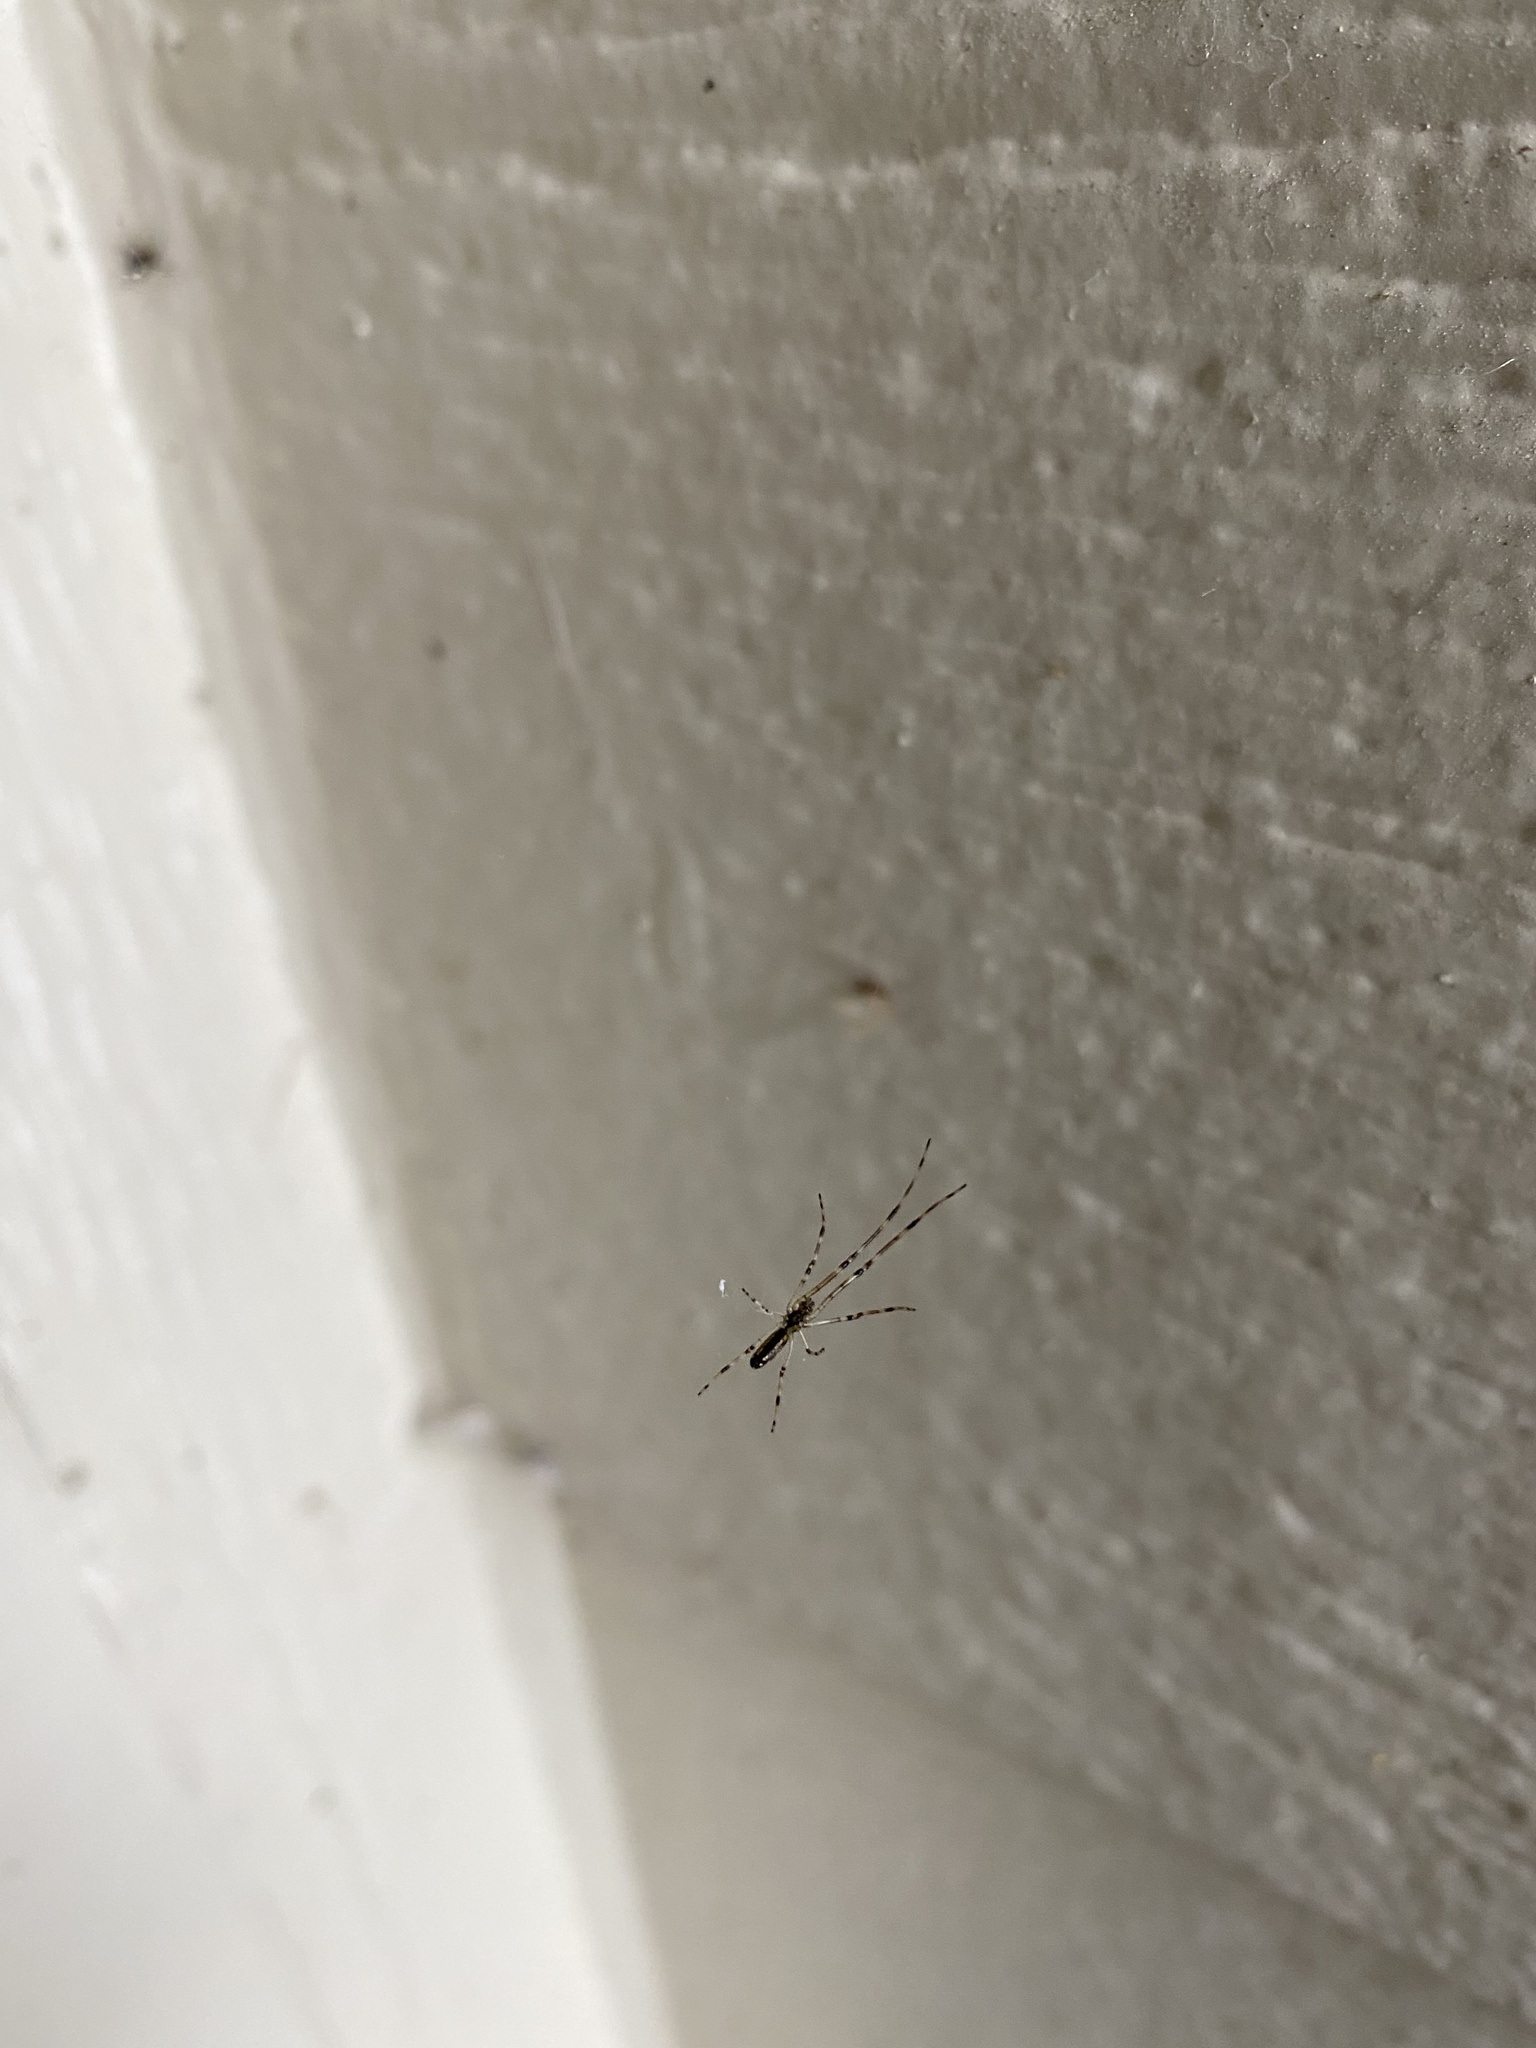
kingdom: Animalia
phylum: Arthropoda
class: Arachnida
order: Araneae
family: Tetragnathidae
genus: Tetragnatha
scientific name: Tetragnatha
